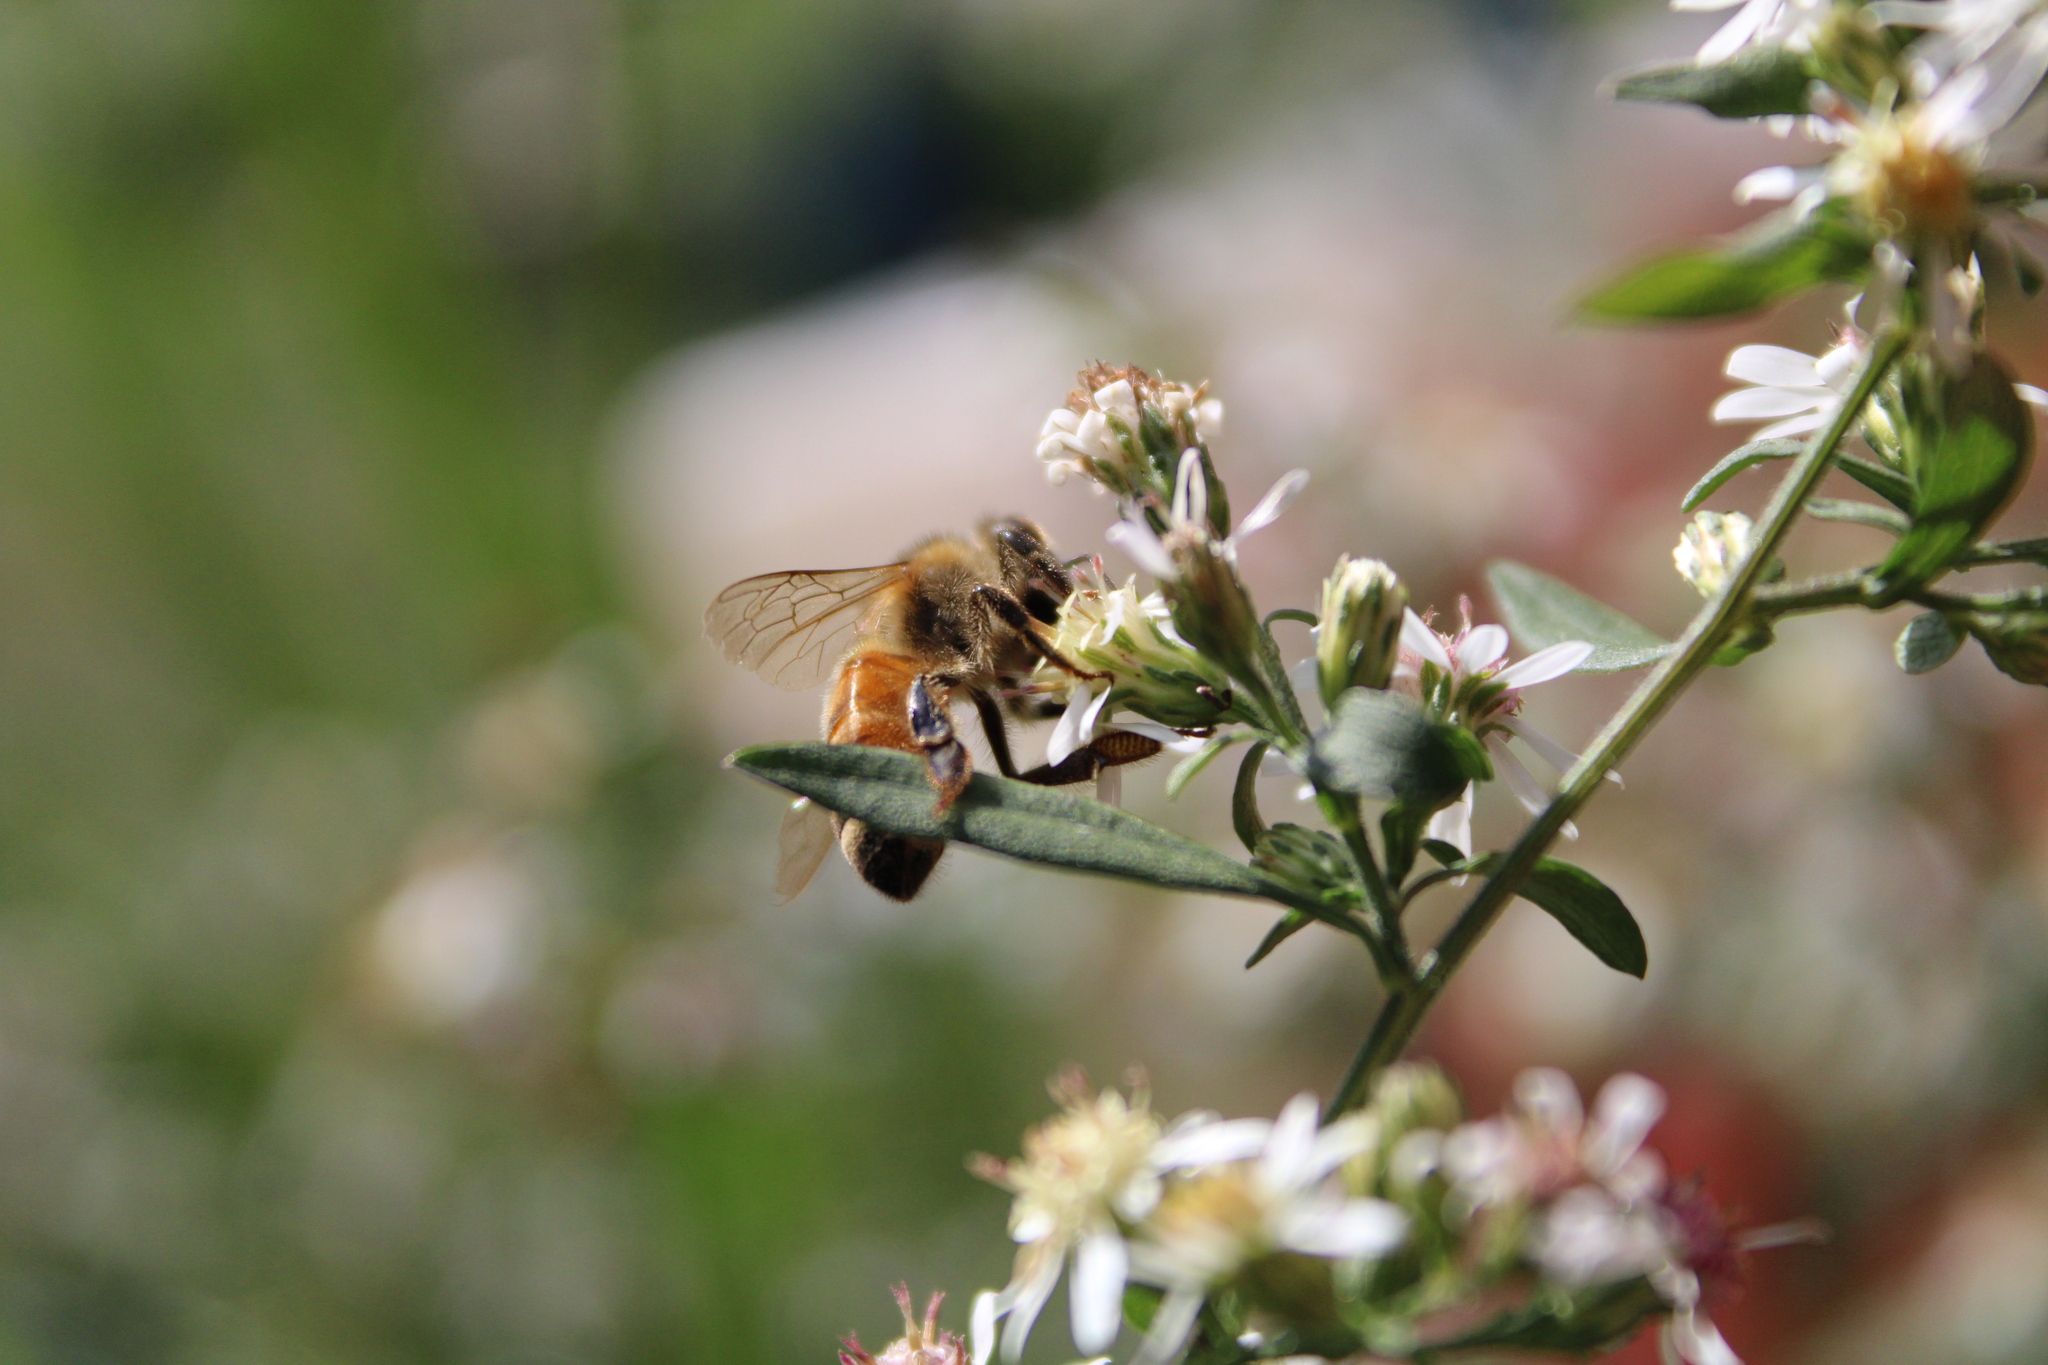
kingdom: Animalia
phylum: Arthropoda
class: Insecta
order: Hymenoptera
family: Apidae
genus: Apis
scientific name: Apis mellifera
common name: Honey bee
